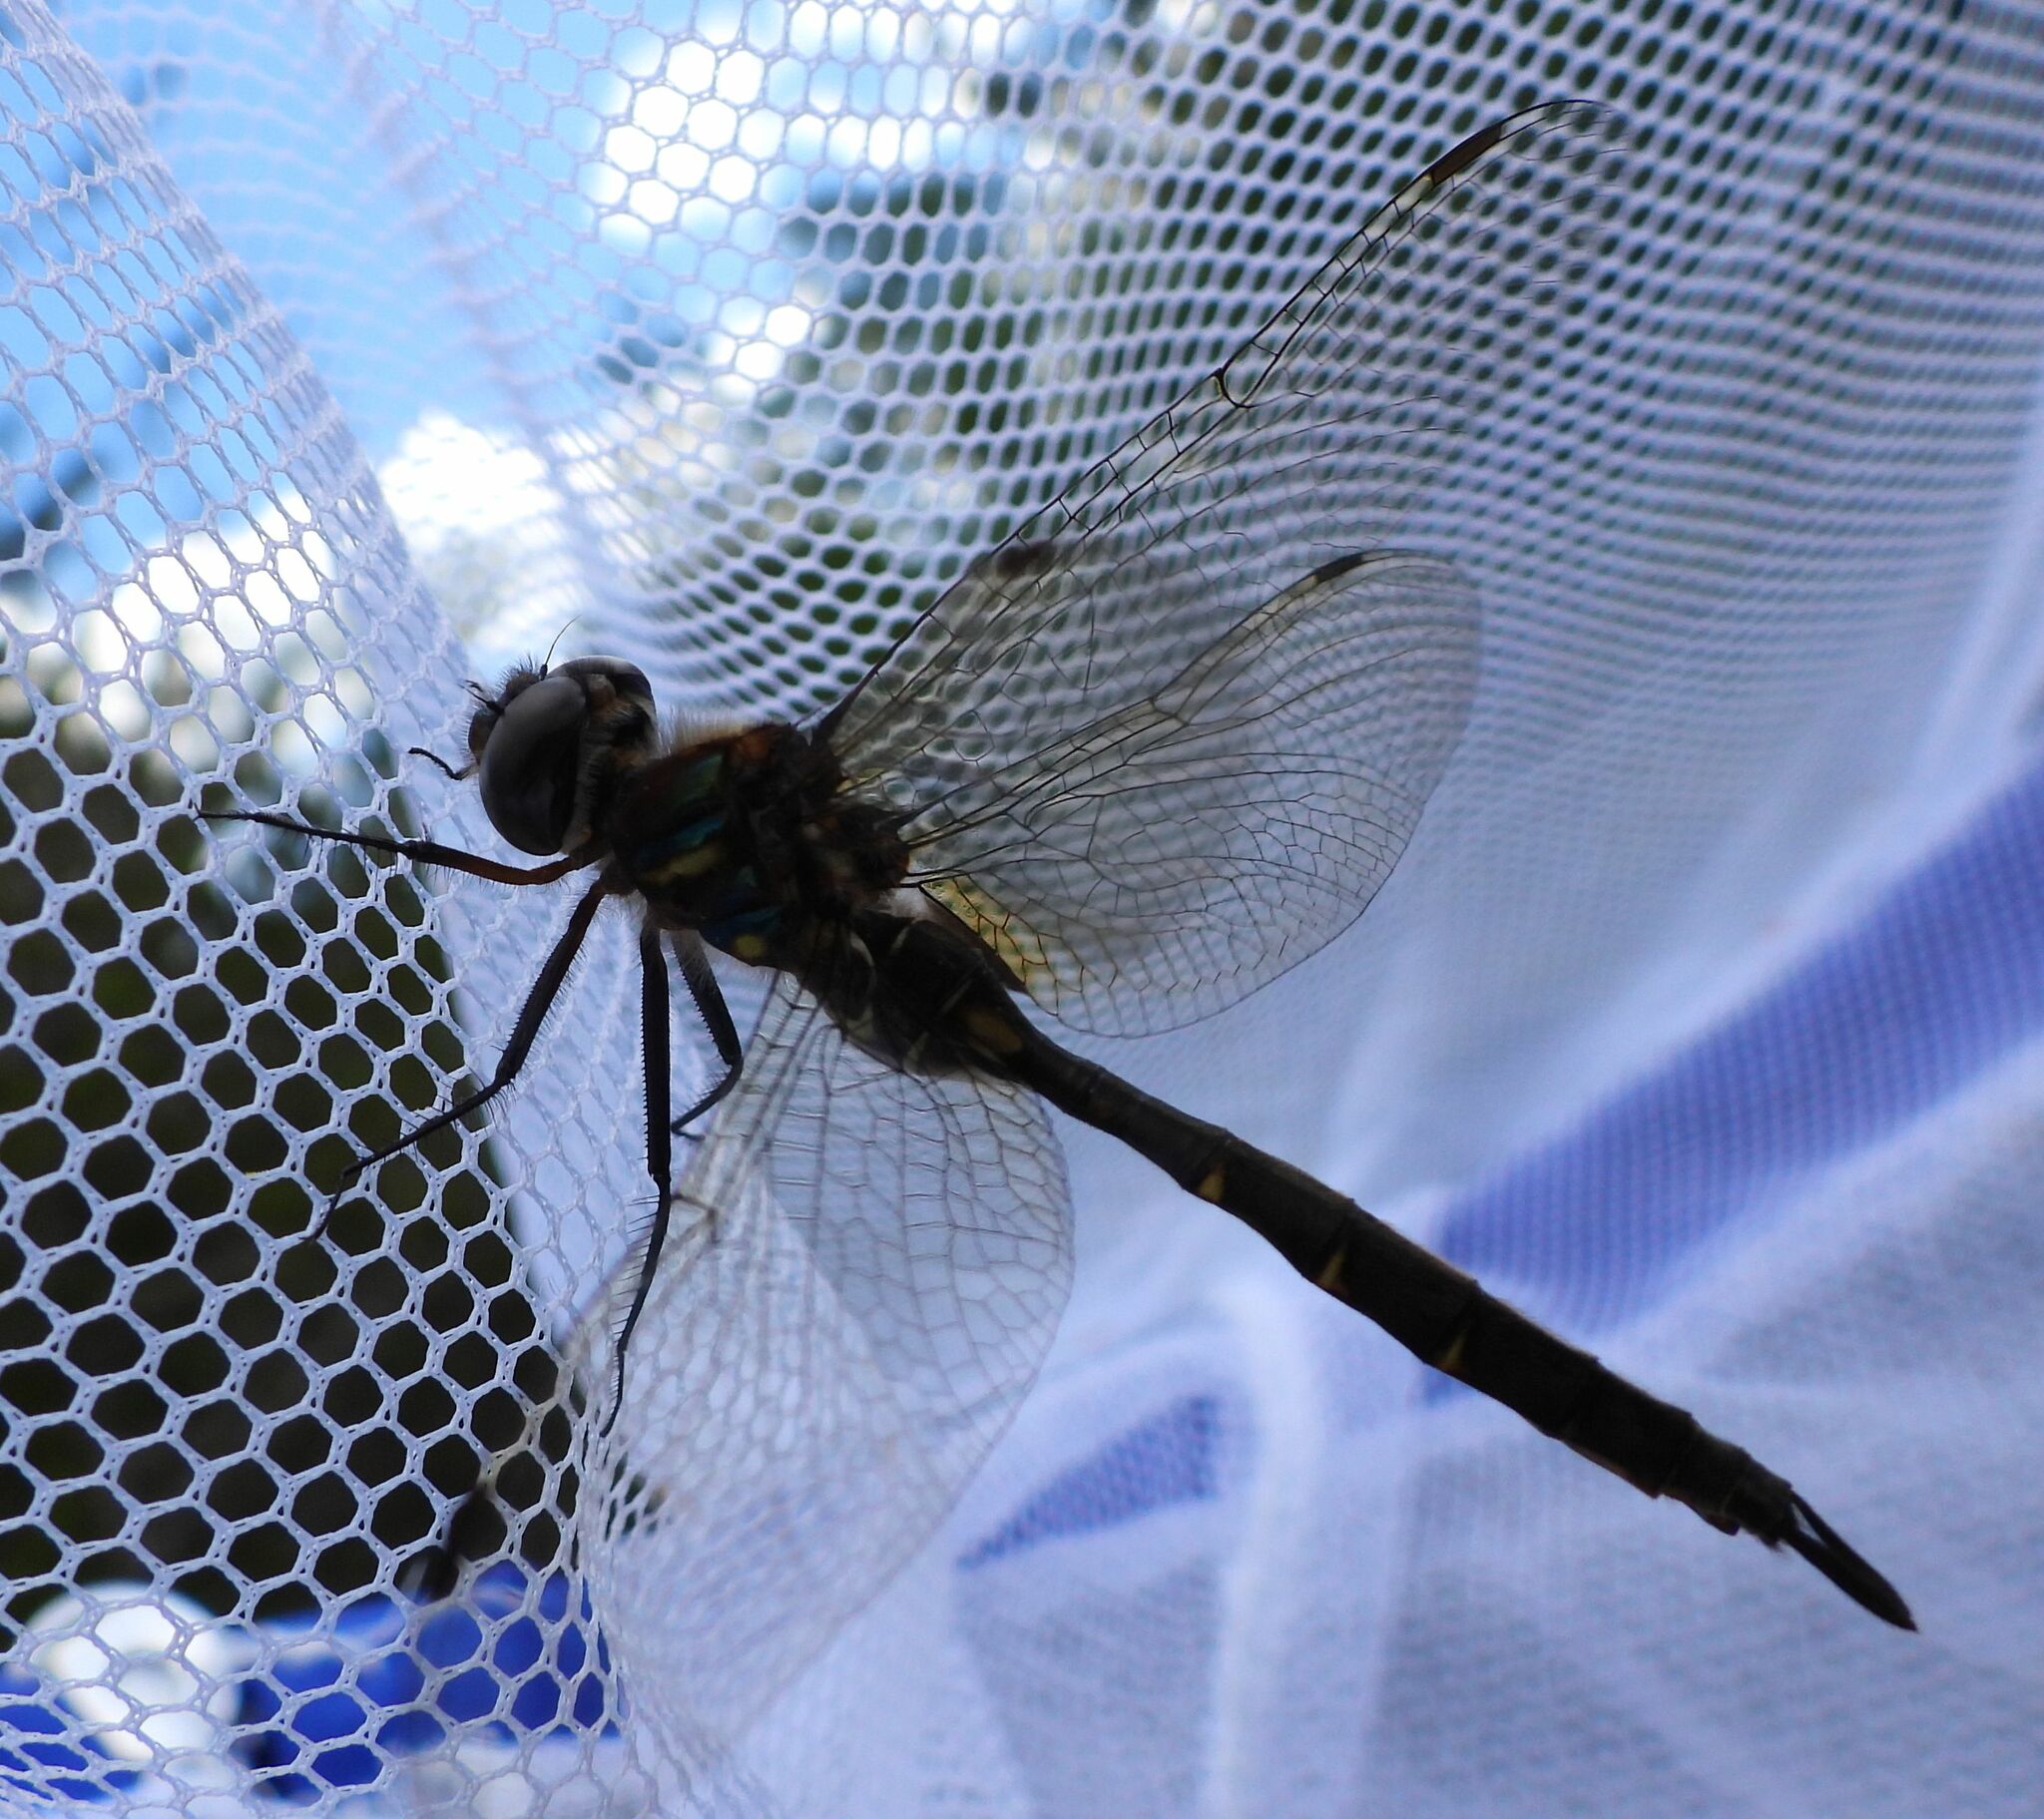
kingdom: Animalia
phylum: Arthropoda
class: Insecta
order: Odonata
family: Corduliidae
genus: Somatochlora
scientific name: Somatochlora walshii
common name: Brush-tipped emerald
